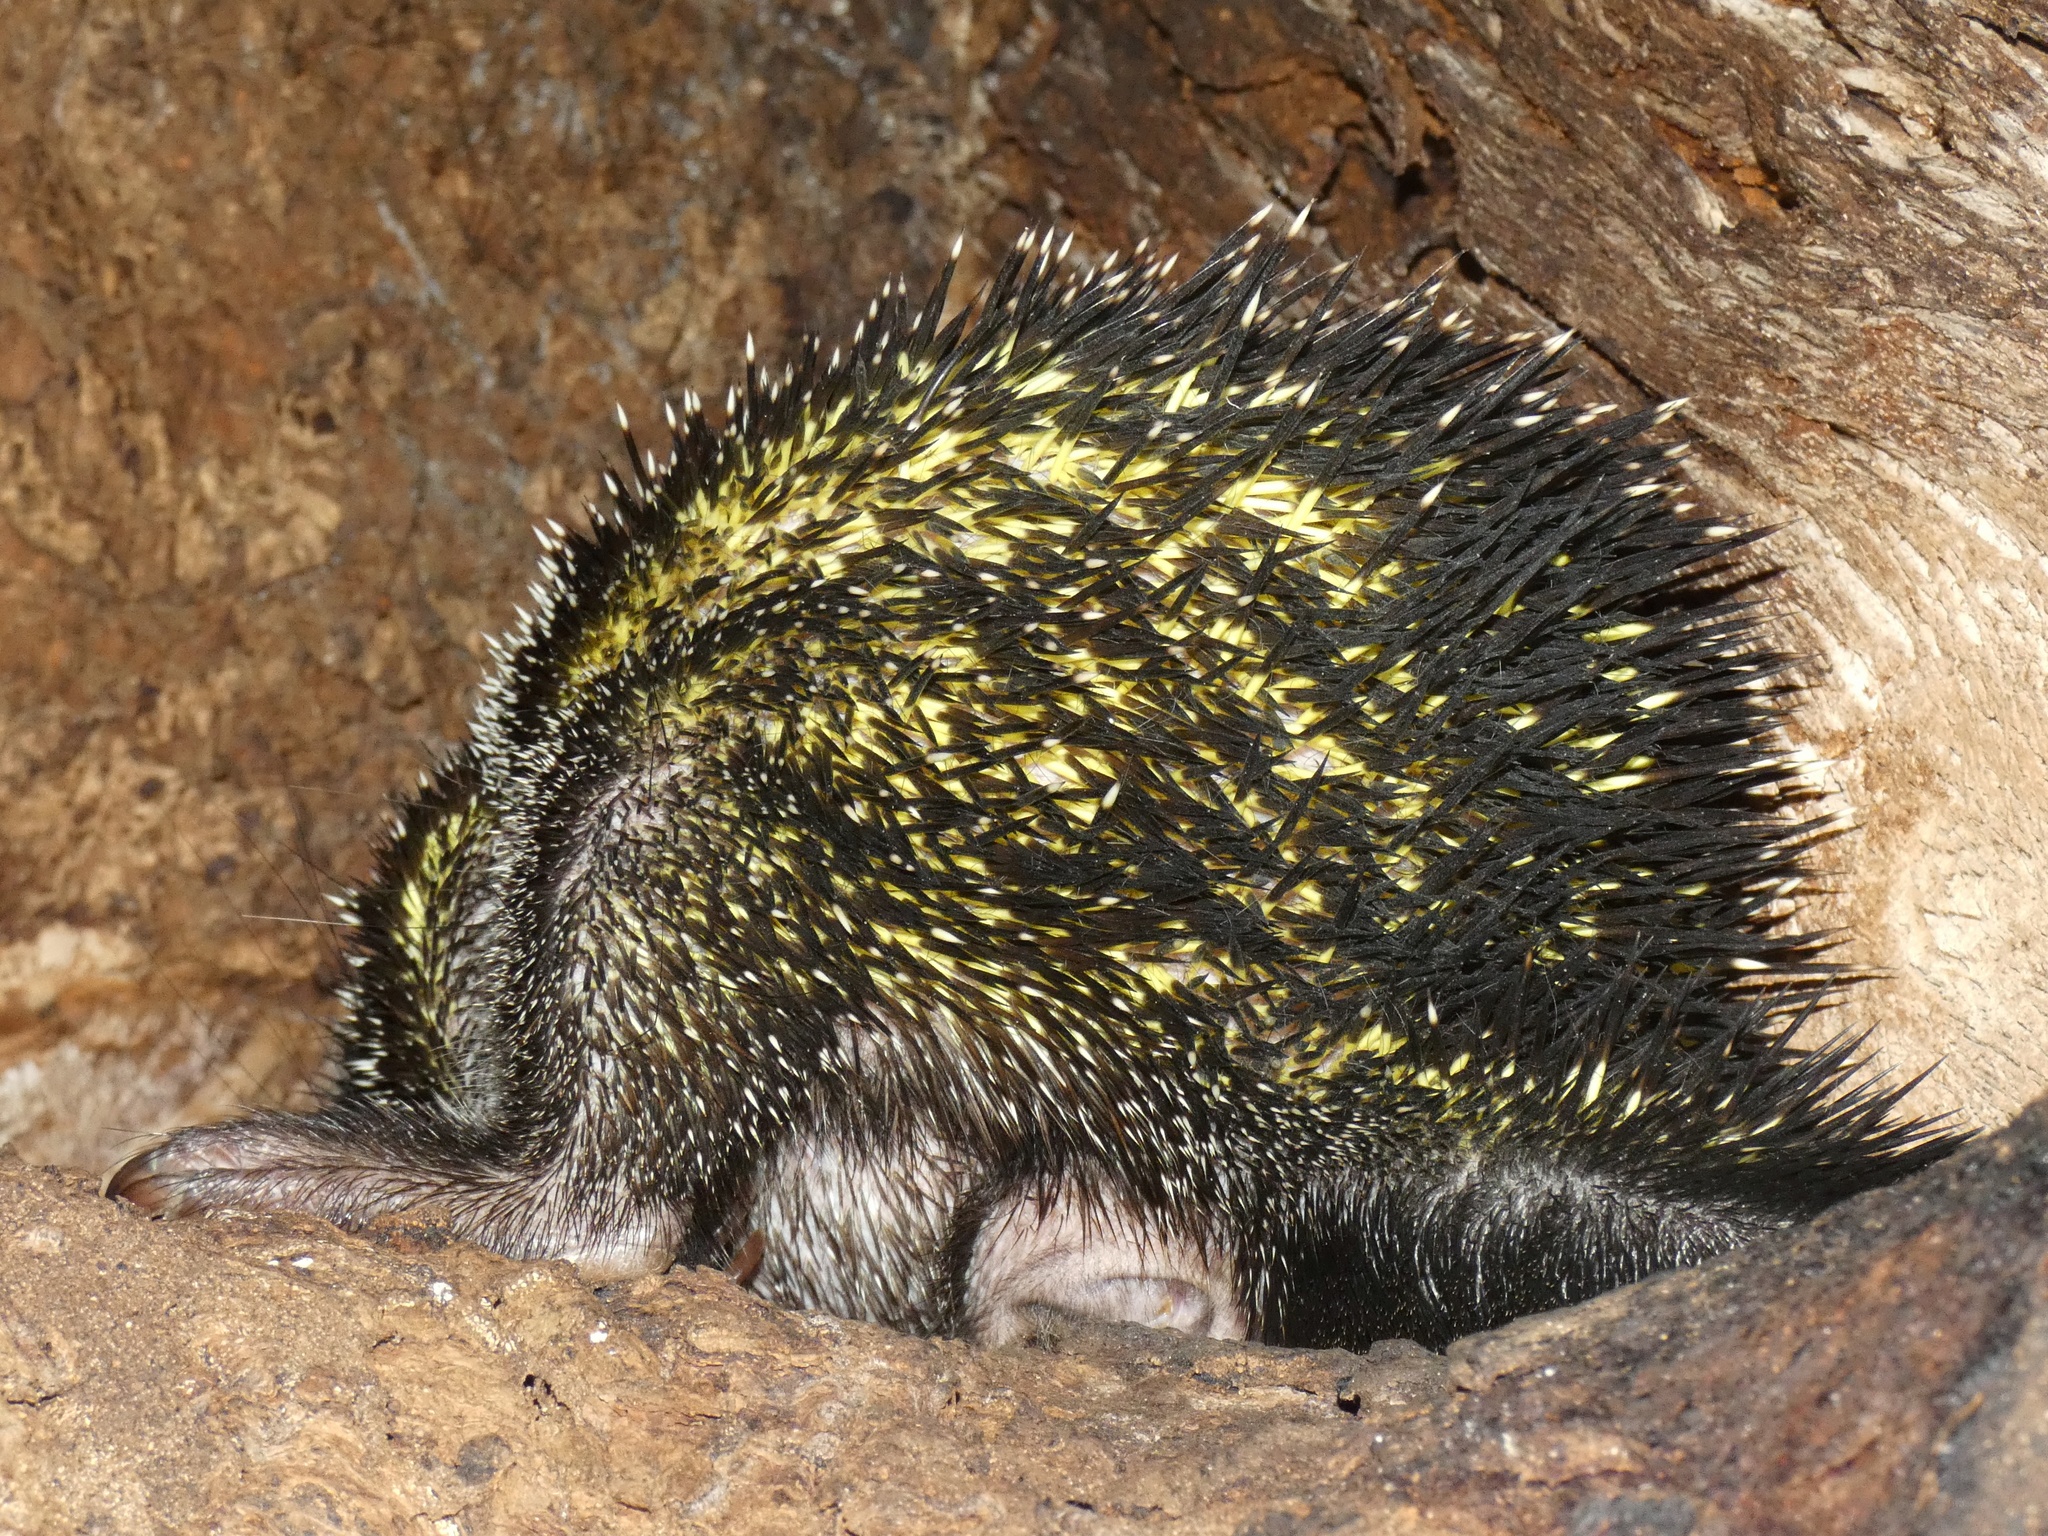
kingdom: Animalia
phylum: Chordata
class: Mammalia
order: Rodentia
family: Erethizontidae
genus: Coendou
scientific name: Coendou quichua
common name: Quichua porcupine
